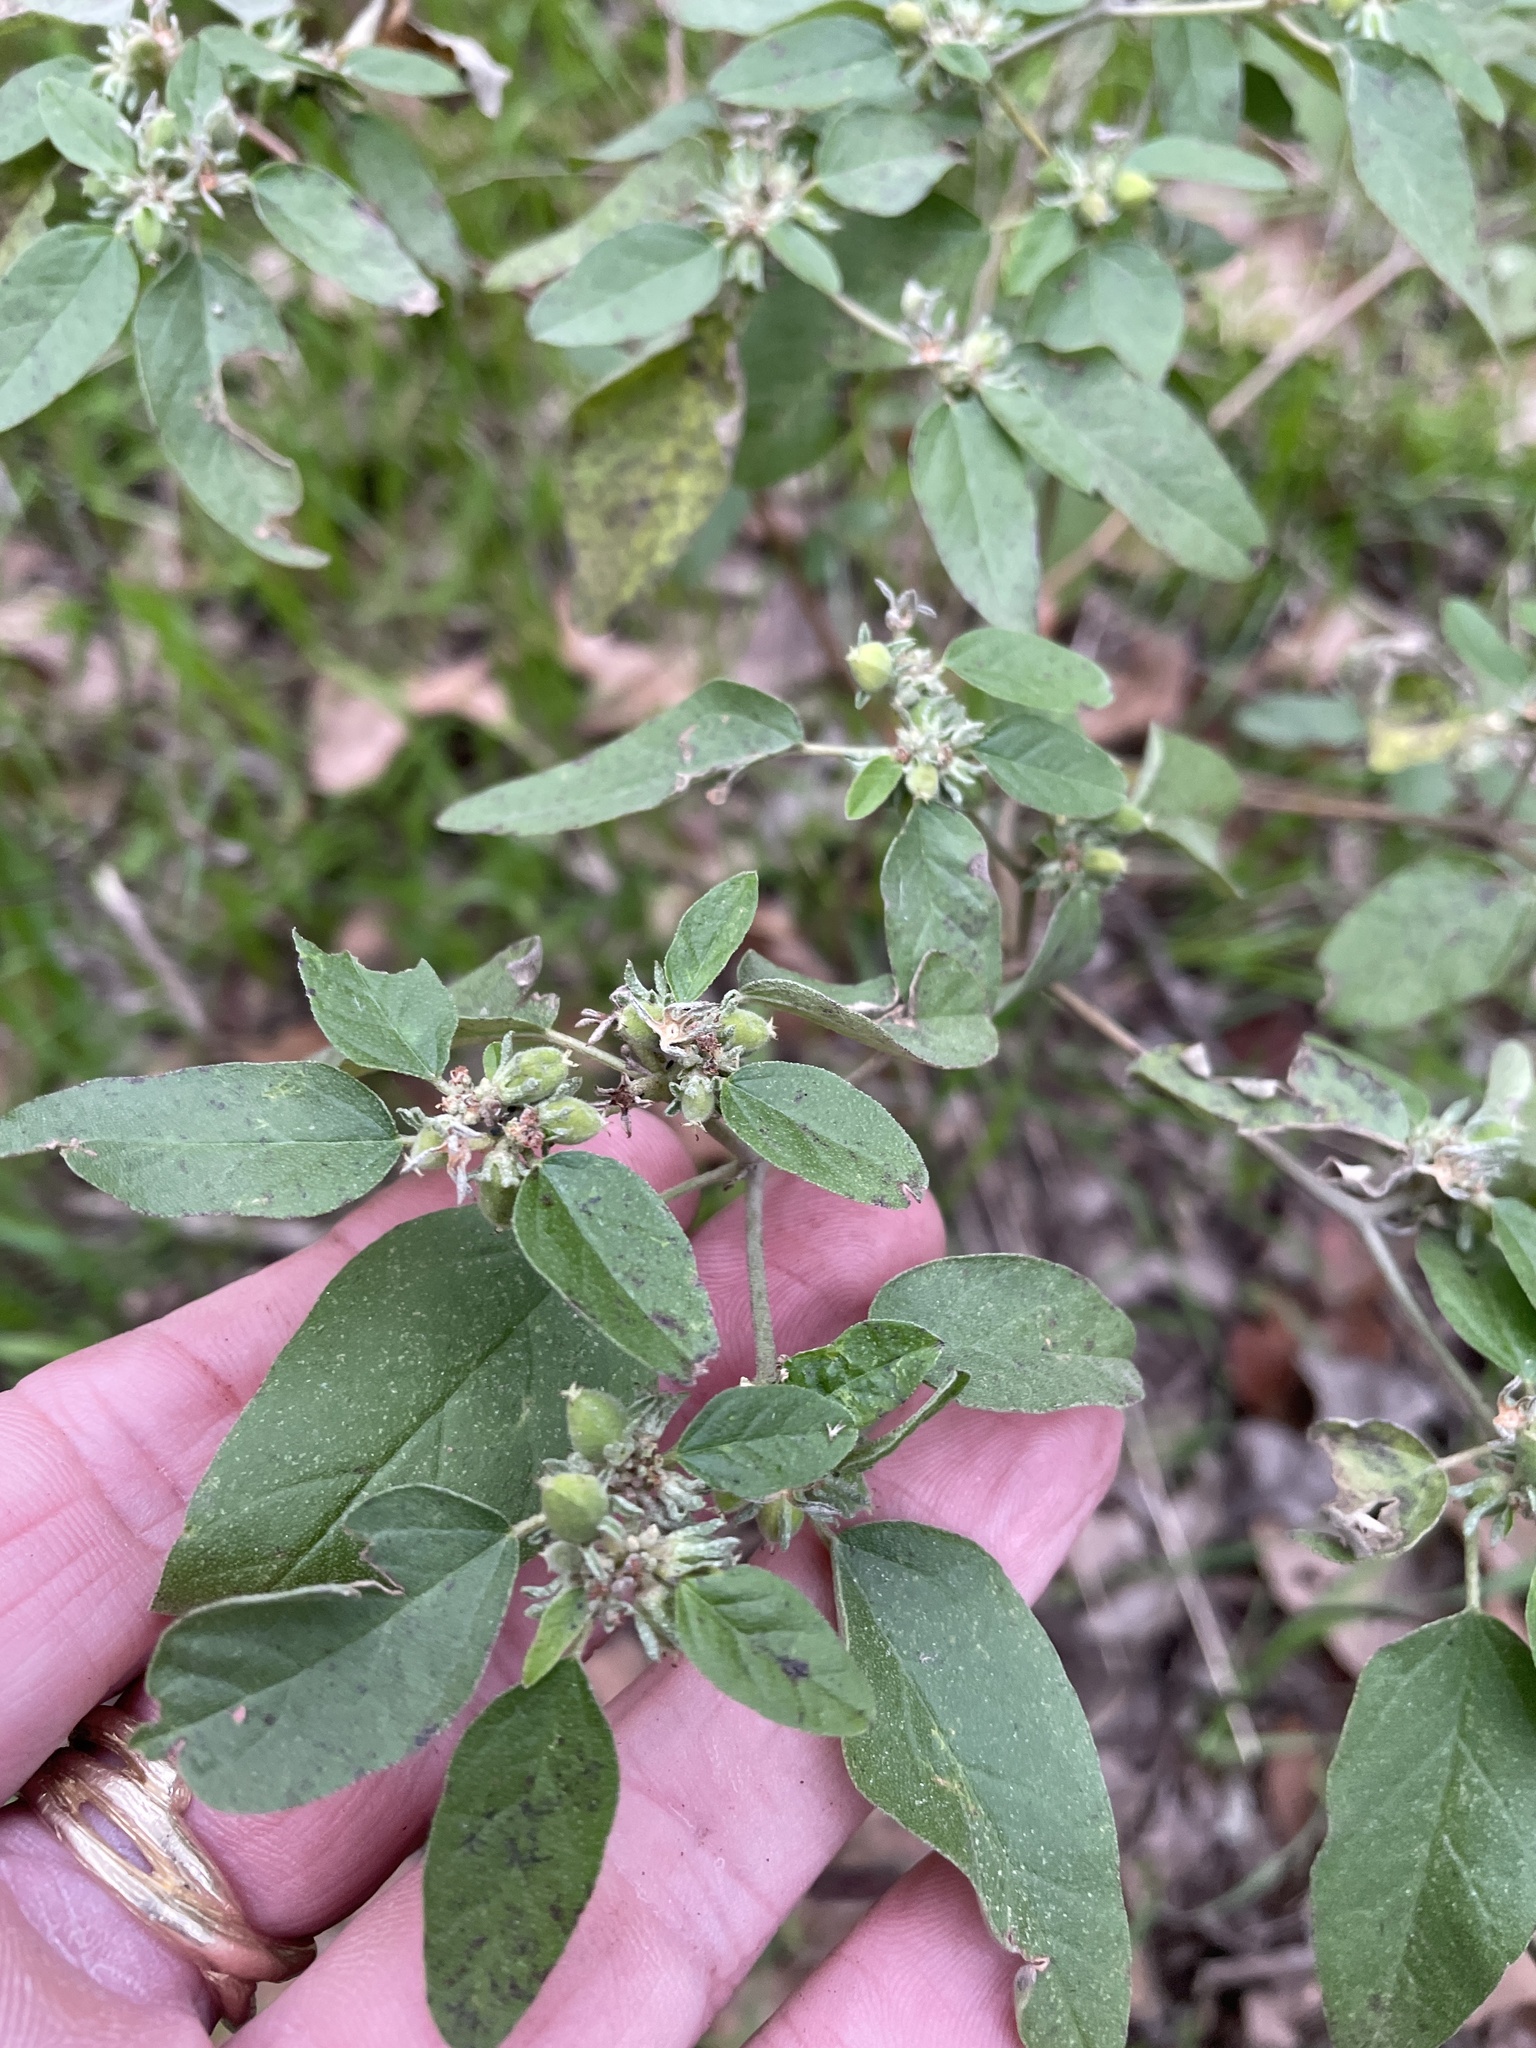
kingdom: Plantae
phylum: Tracheophyta
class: Magnoliopsida
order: Malpighiales
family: Euphorbiaceae
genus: Croton
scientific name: Croton monanthogynus
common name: One-seed croton
